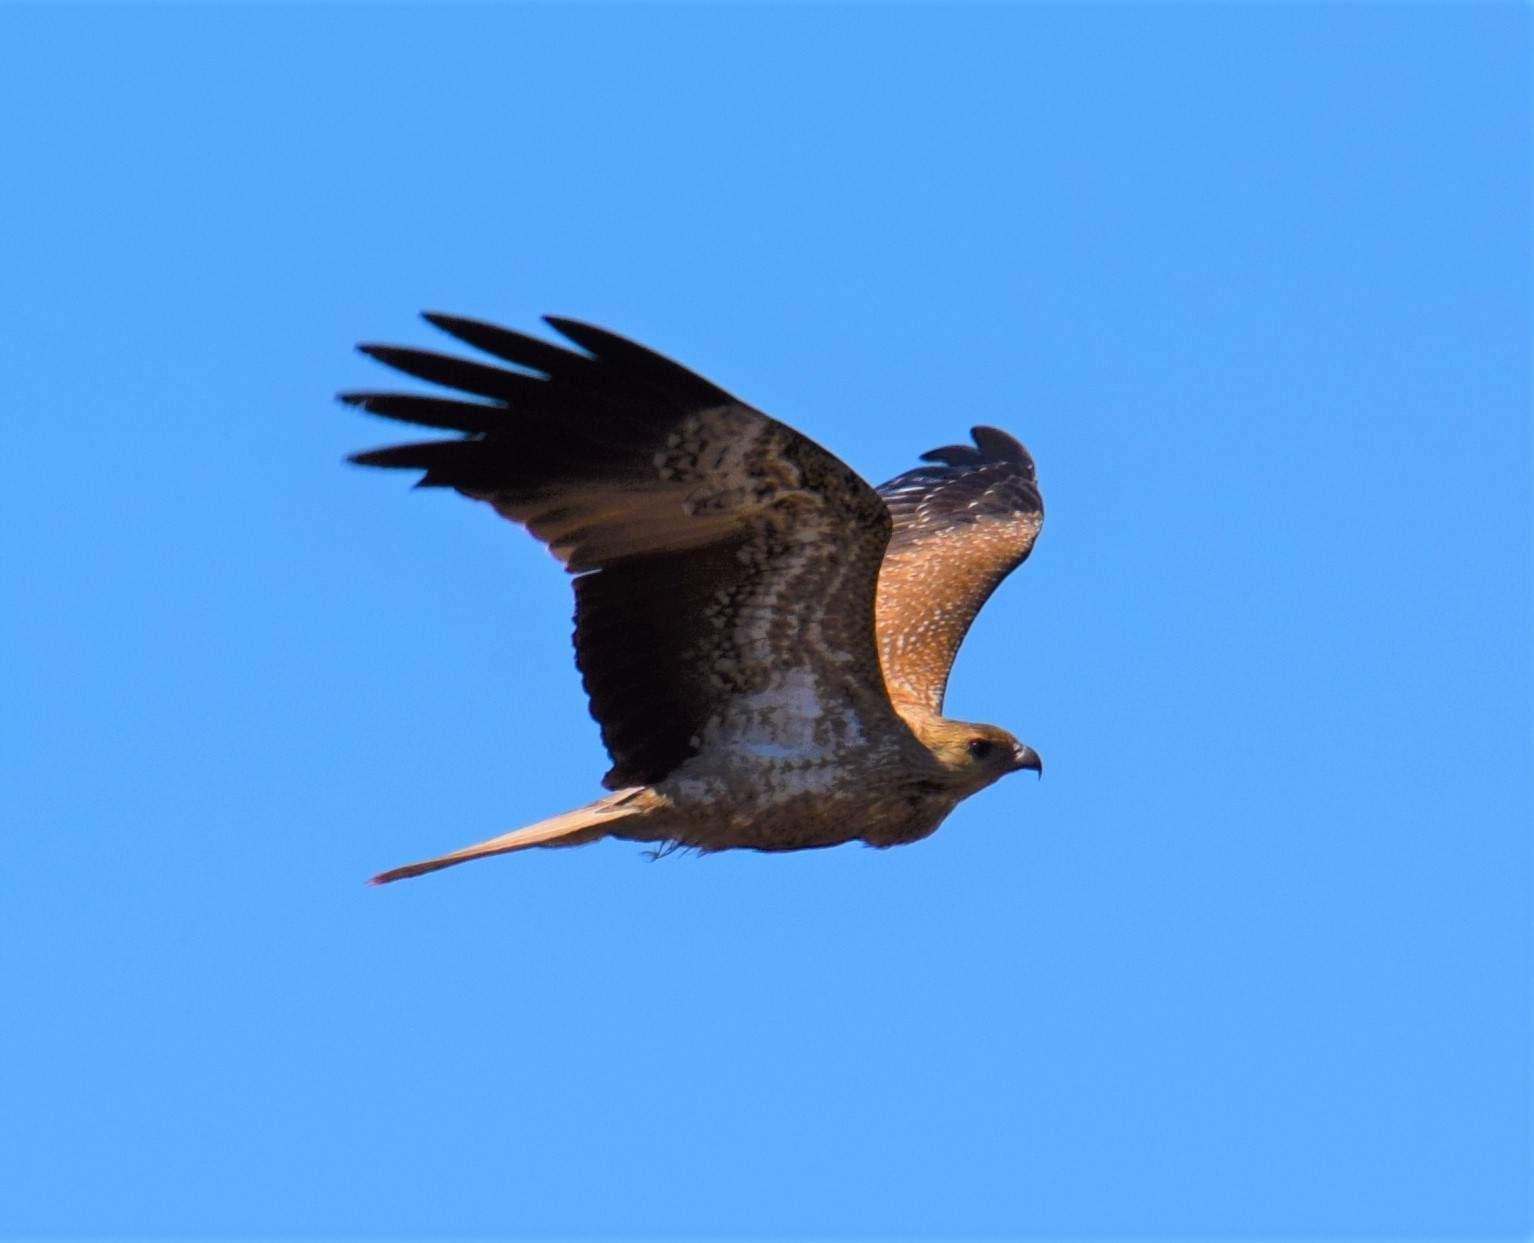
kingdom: Animalia
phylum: Chordata
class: Aves
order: Accipitriformes
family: Accipitridae
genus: Haliastur
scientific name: Haliastur sphenurus
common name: Whistling kite
